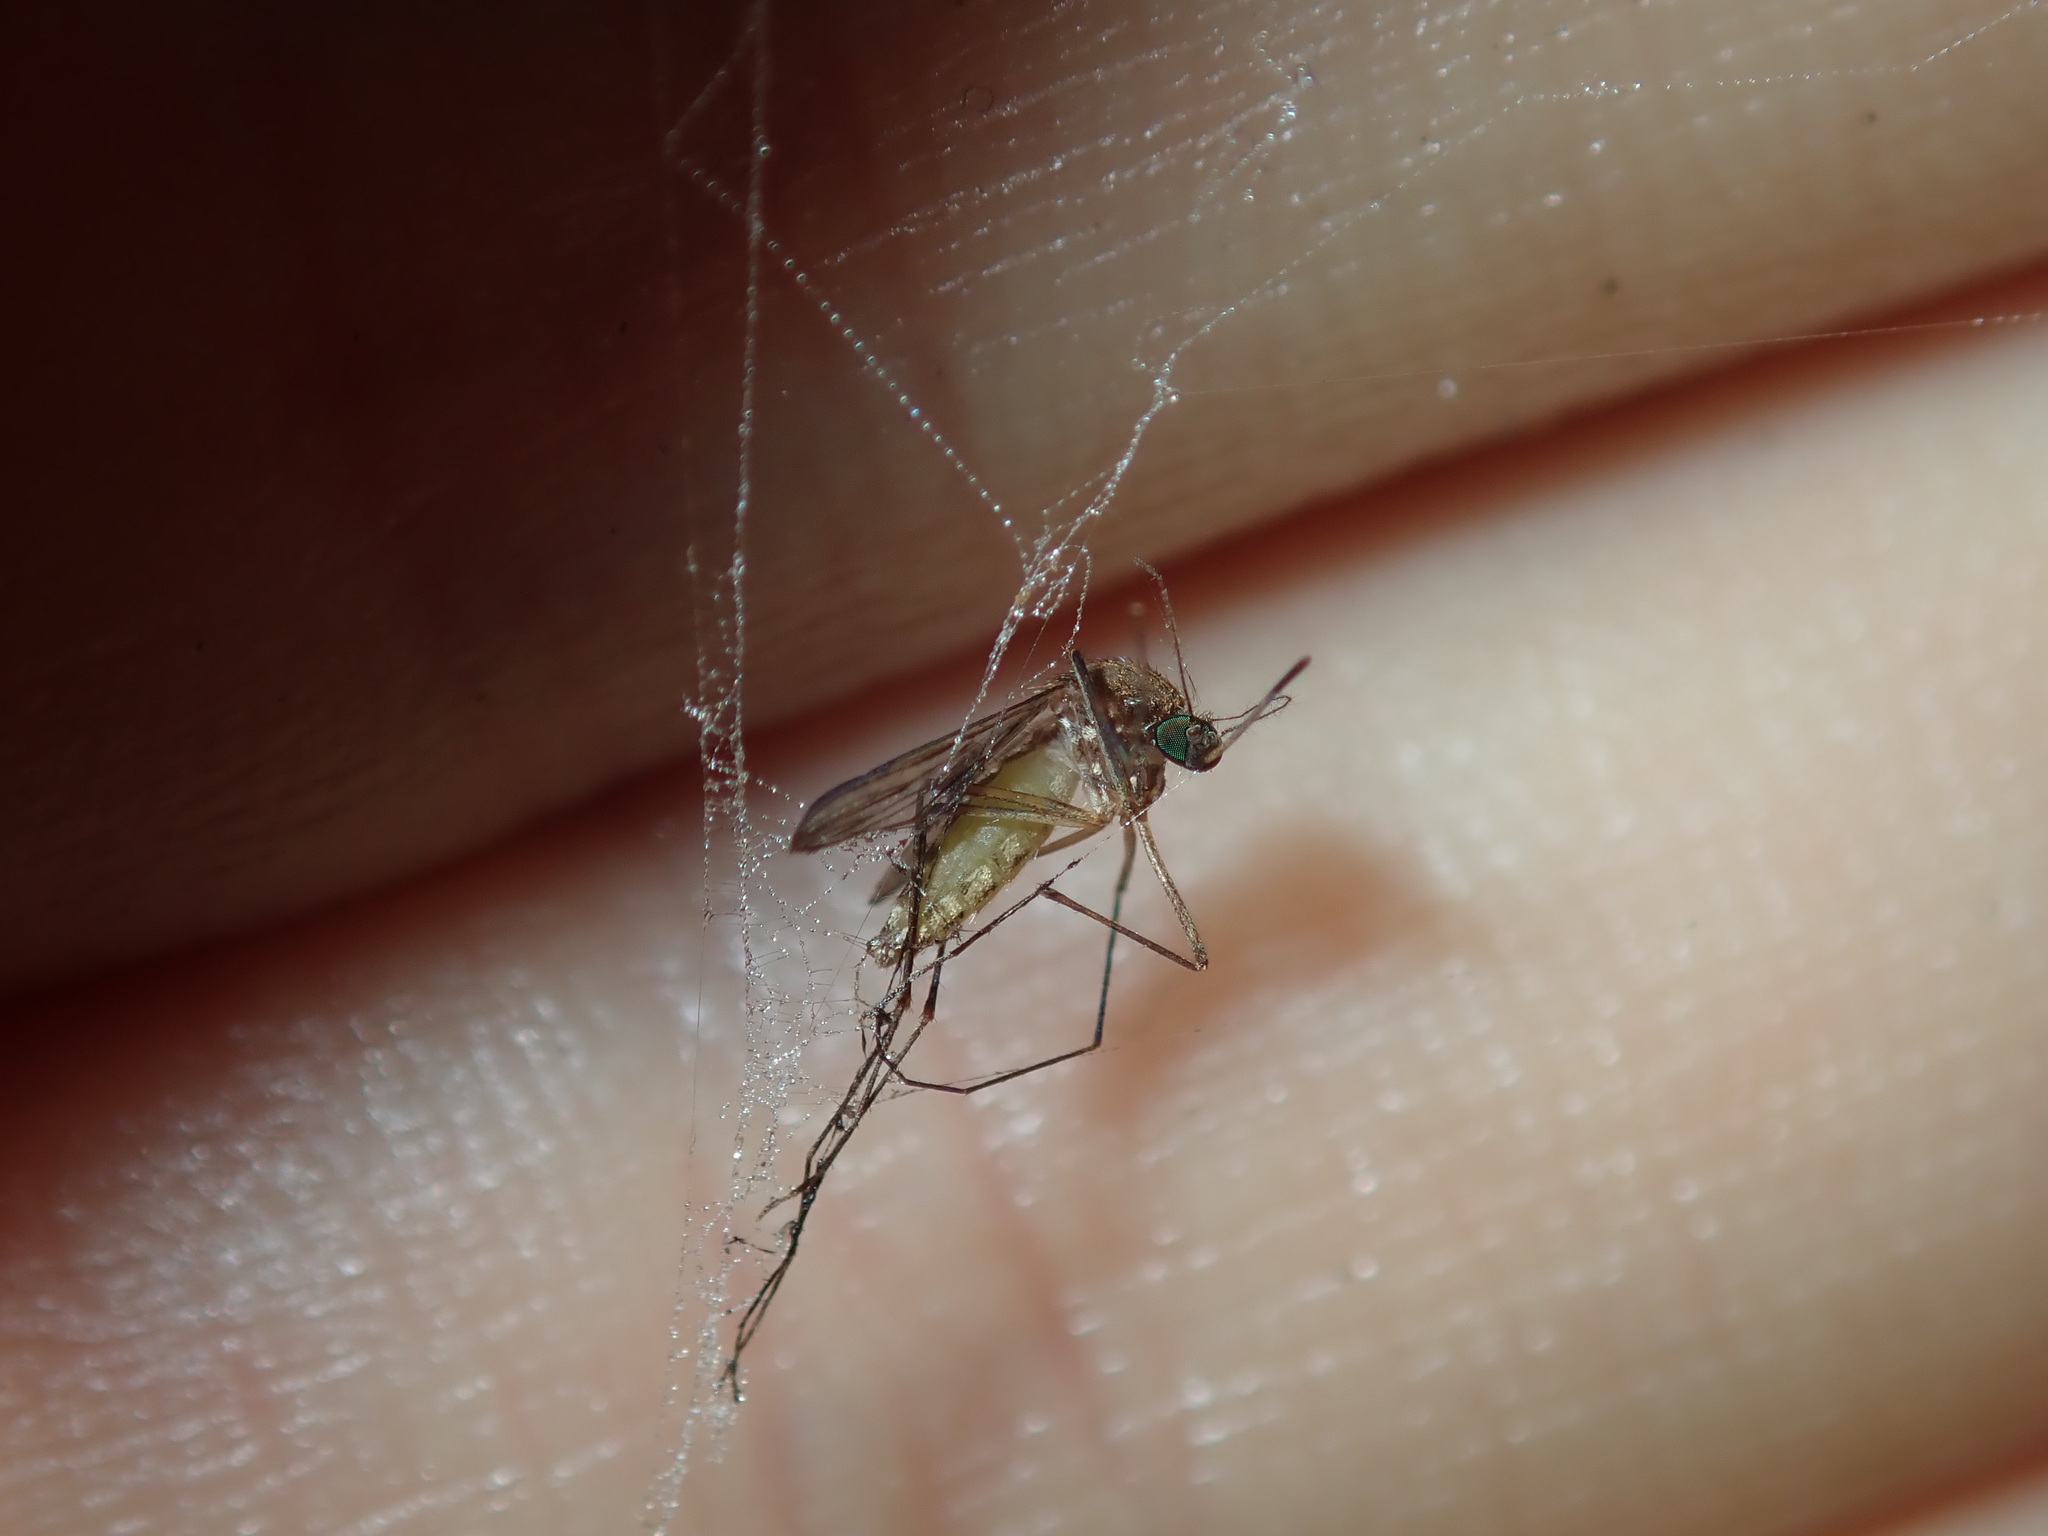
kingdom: Animalia
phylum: Arthropoda
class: Insecta
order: Diptera
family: Culicidae
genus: Culex
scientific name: Culex quinquefasciatus
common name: Southern house mosquito
